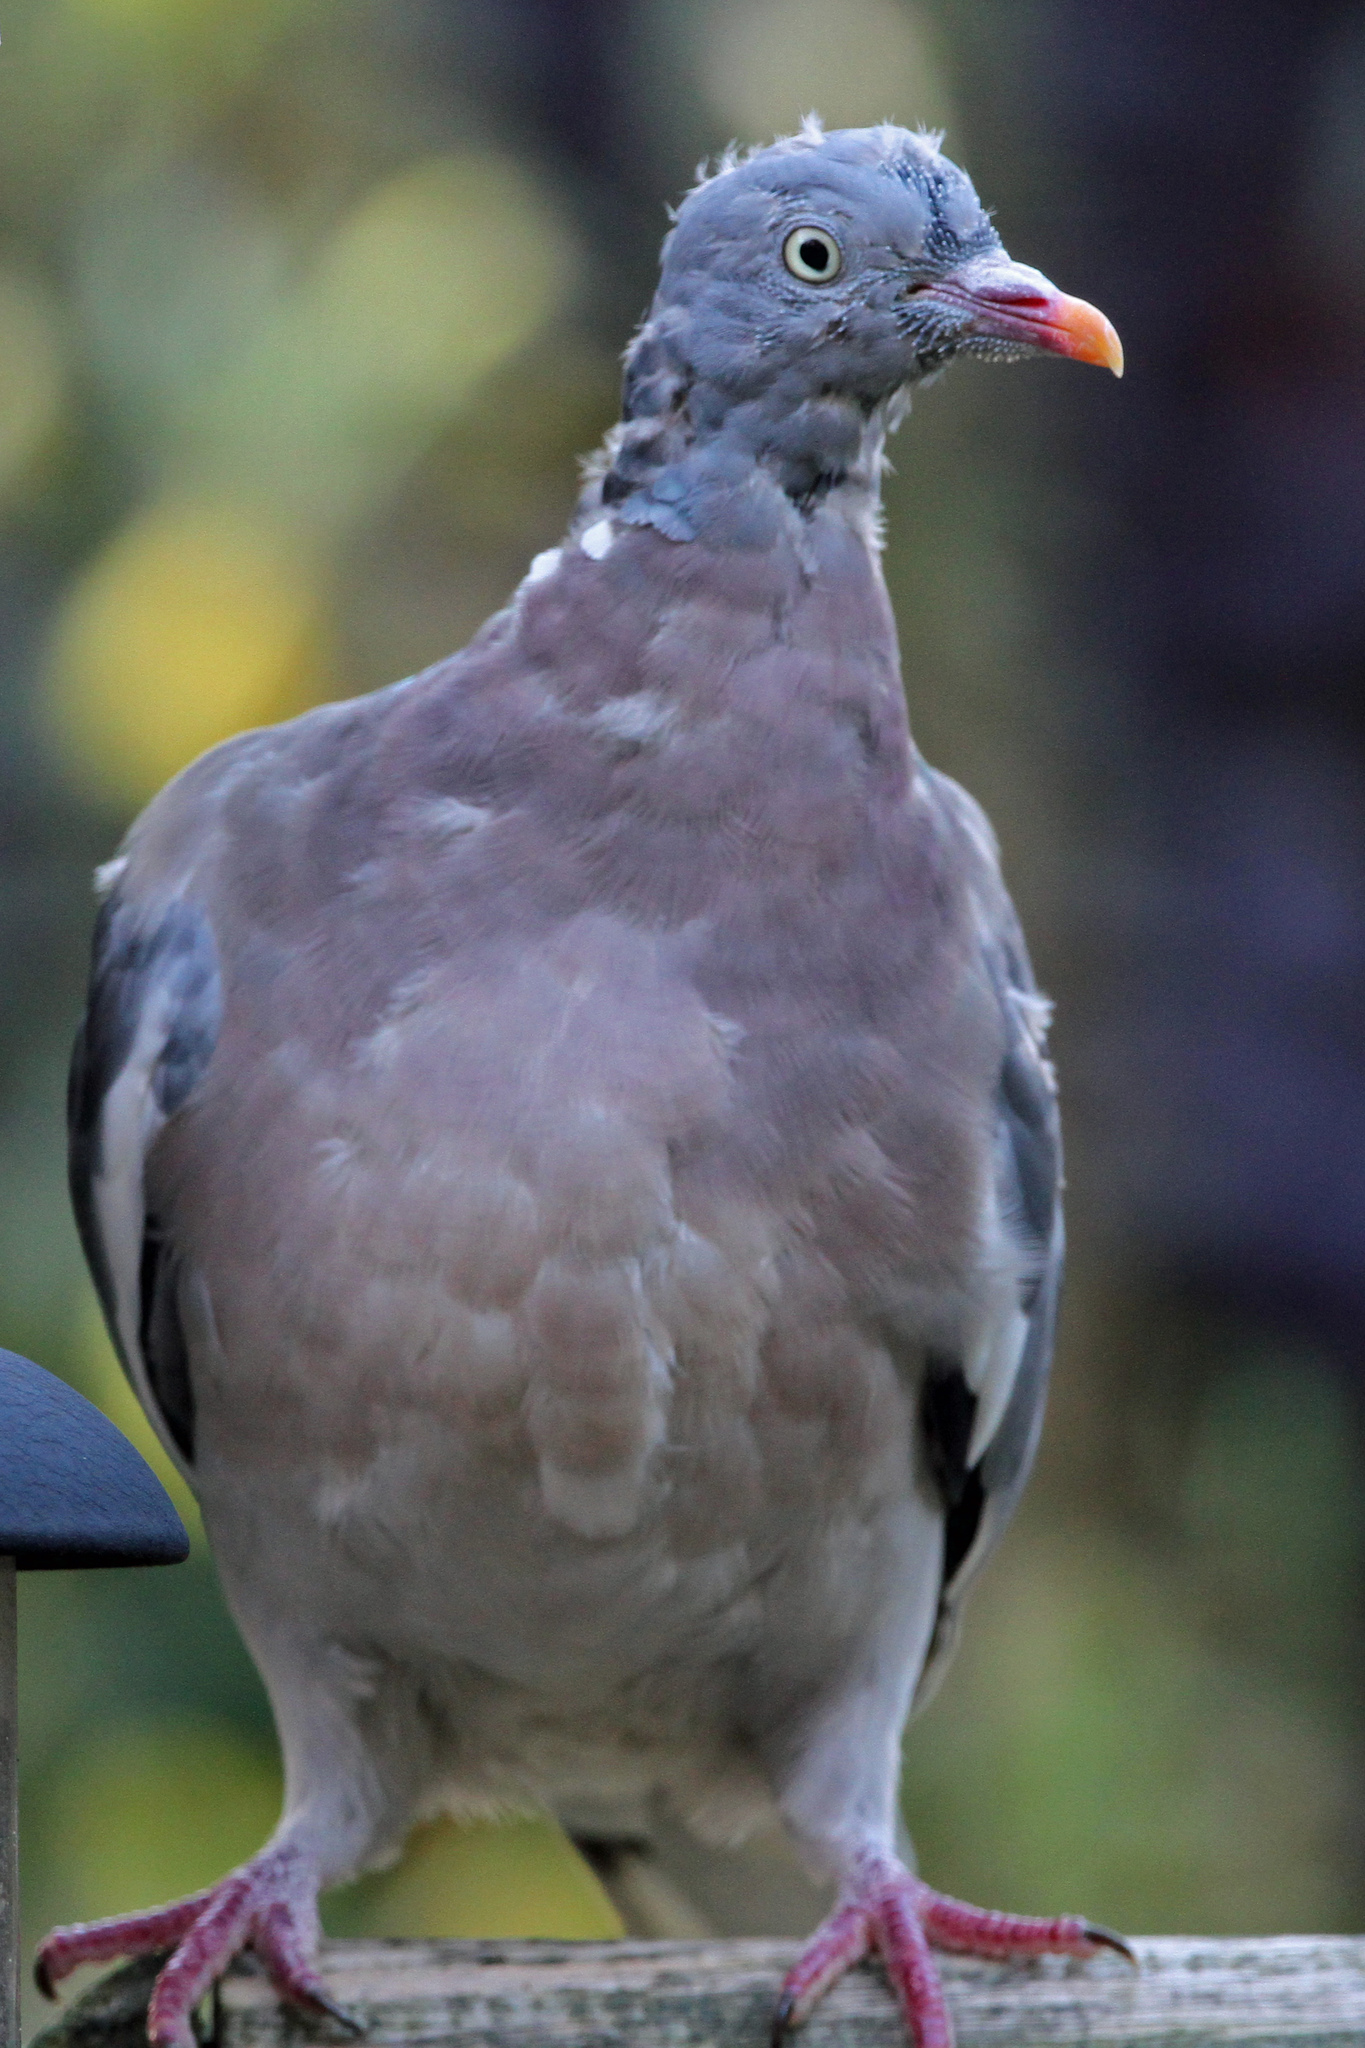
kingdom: Animalia
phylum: Chordata
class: Aves
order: Columbiformes
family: Columbidae
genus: Columba
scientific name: Columba palumbus
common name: Common wood pigeon
